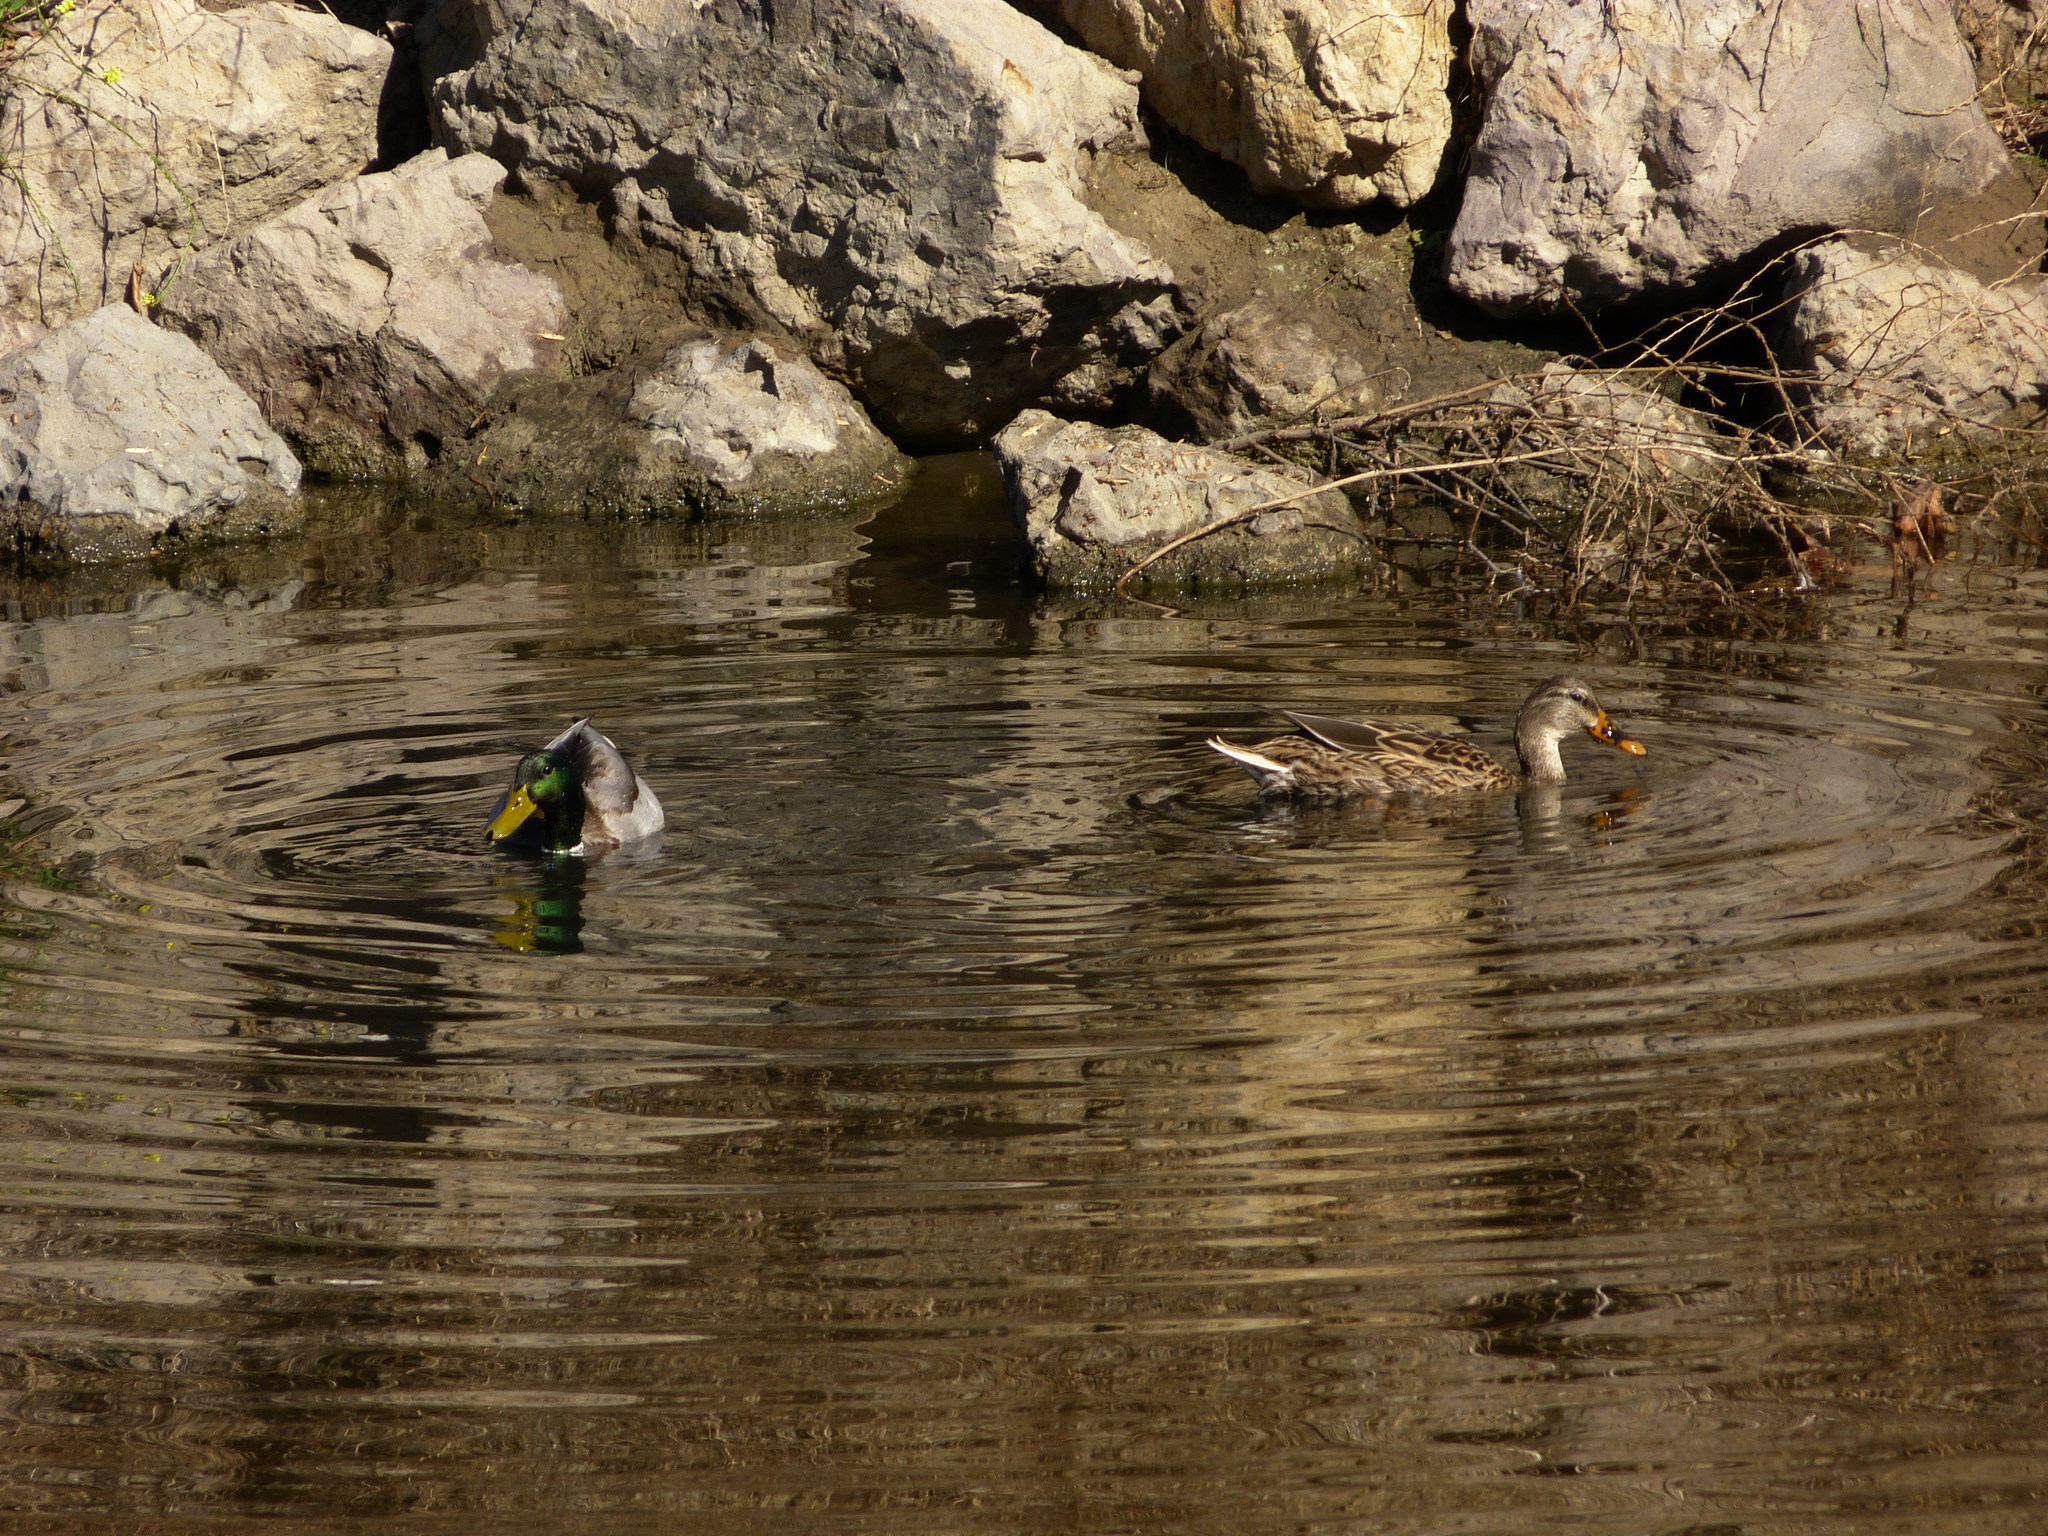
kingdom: Animalia
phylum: Chordata
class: Aves
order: Anseriformes
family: Anatidae
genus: Anas
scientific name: Anas platyrhynchos
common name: Mallard
